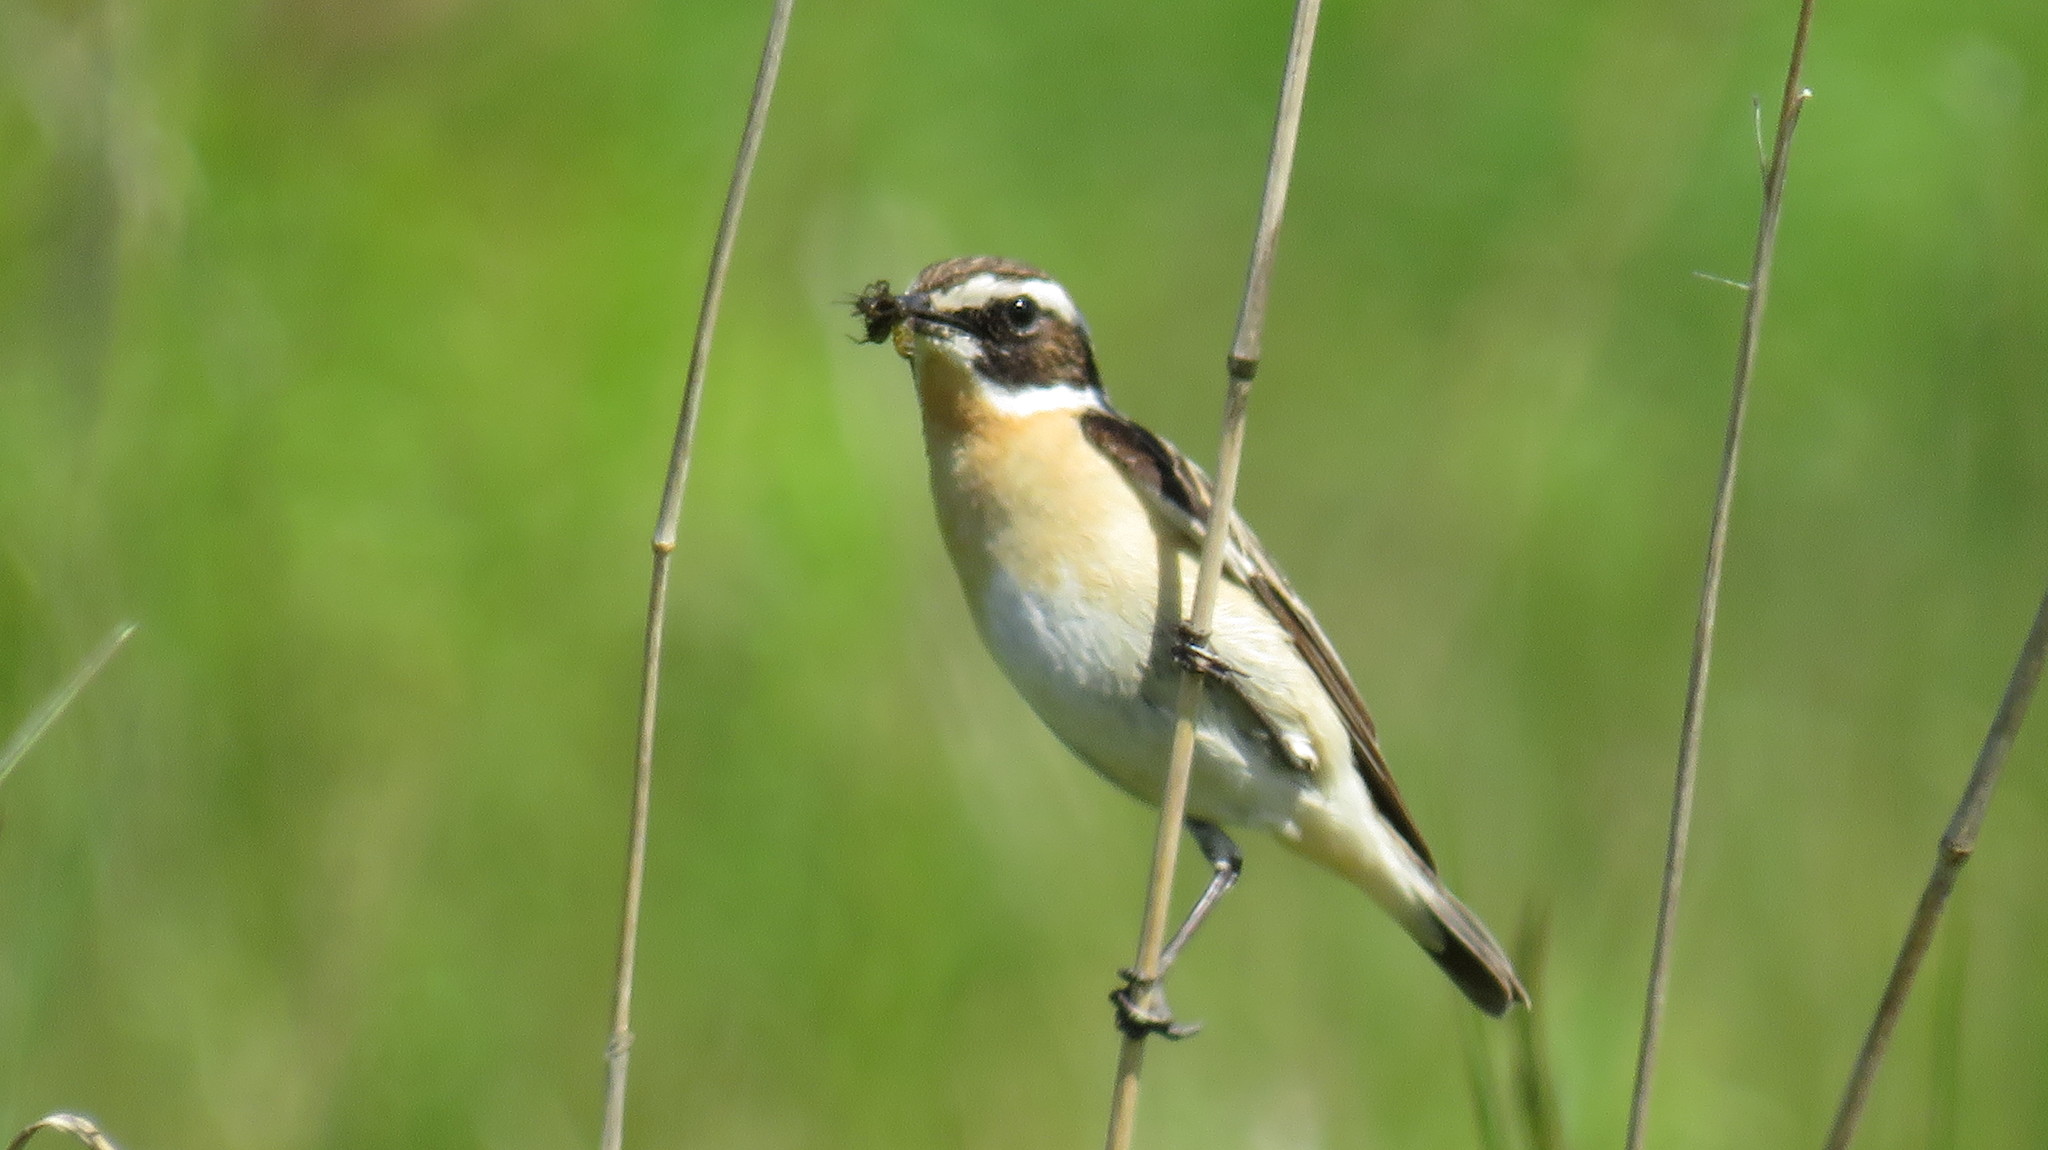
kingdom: Animalia
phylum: Chordata
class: Aves
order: Passeriformes
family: Muscicapidae
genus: Saxicola
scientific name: Saxicola rubetra
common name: Whinchat
